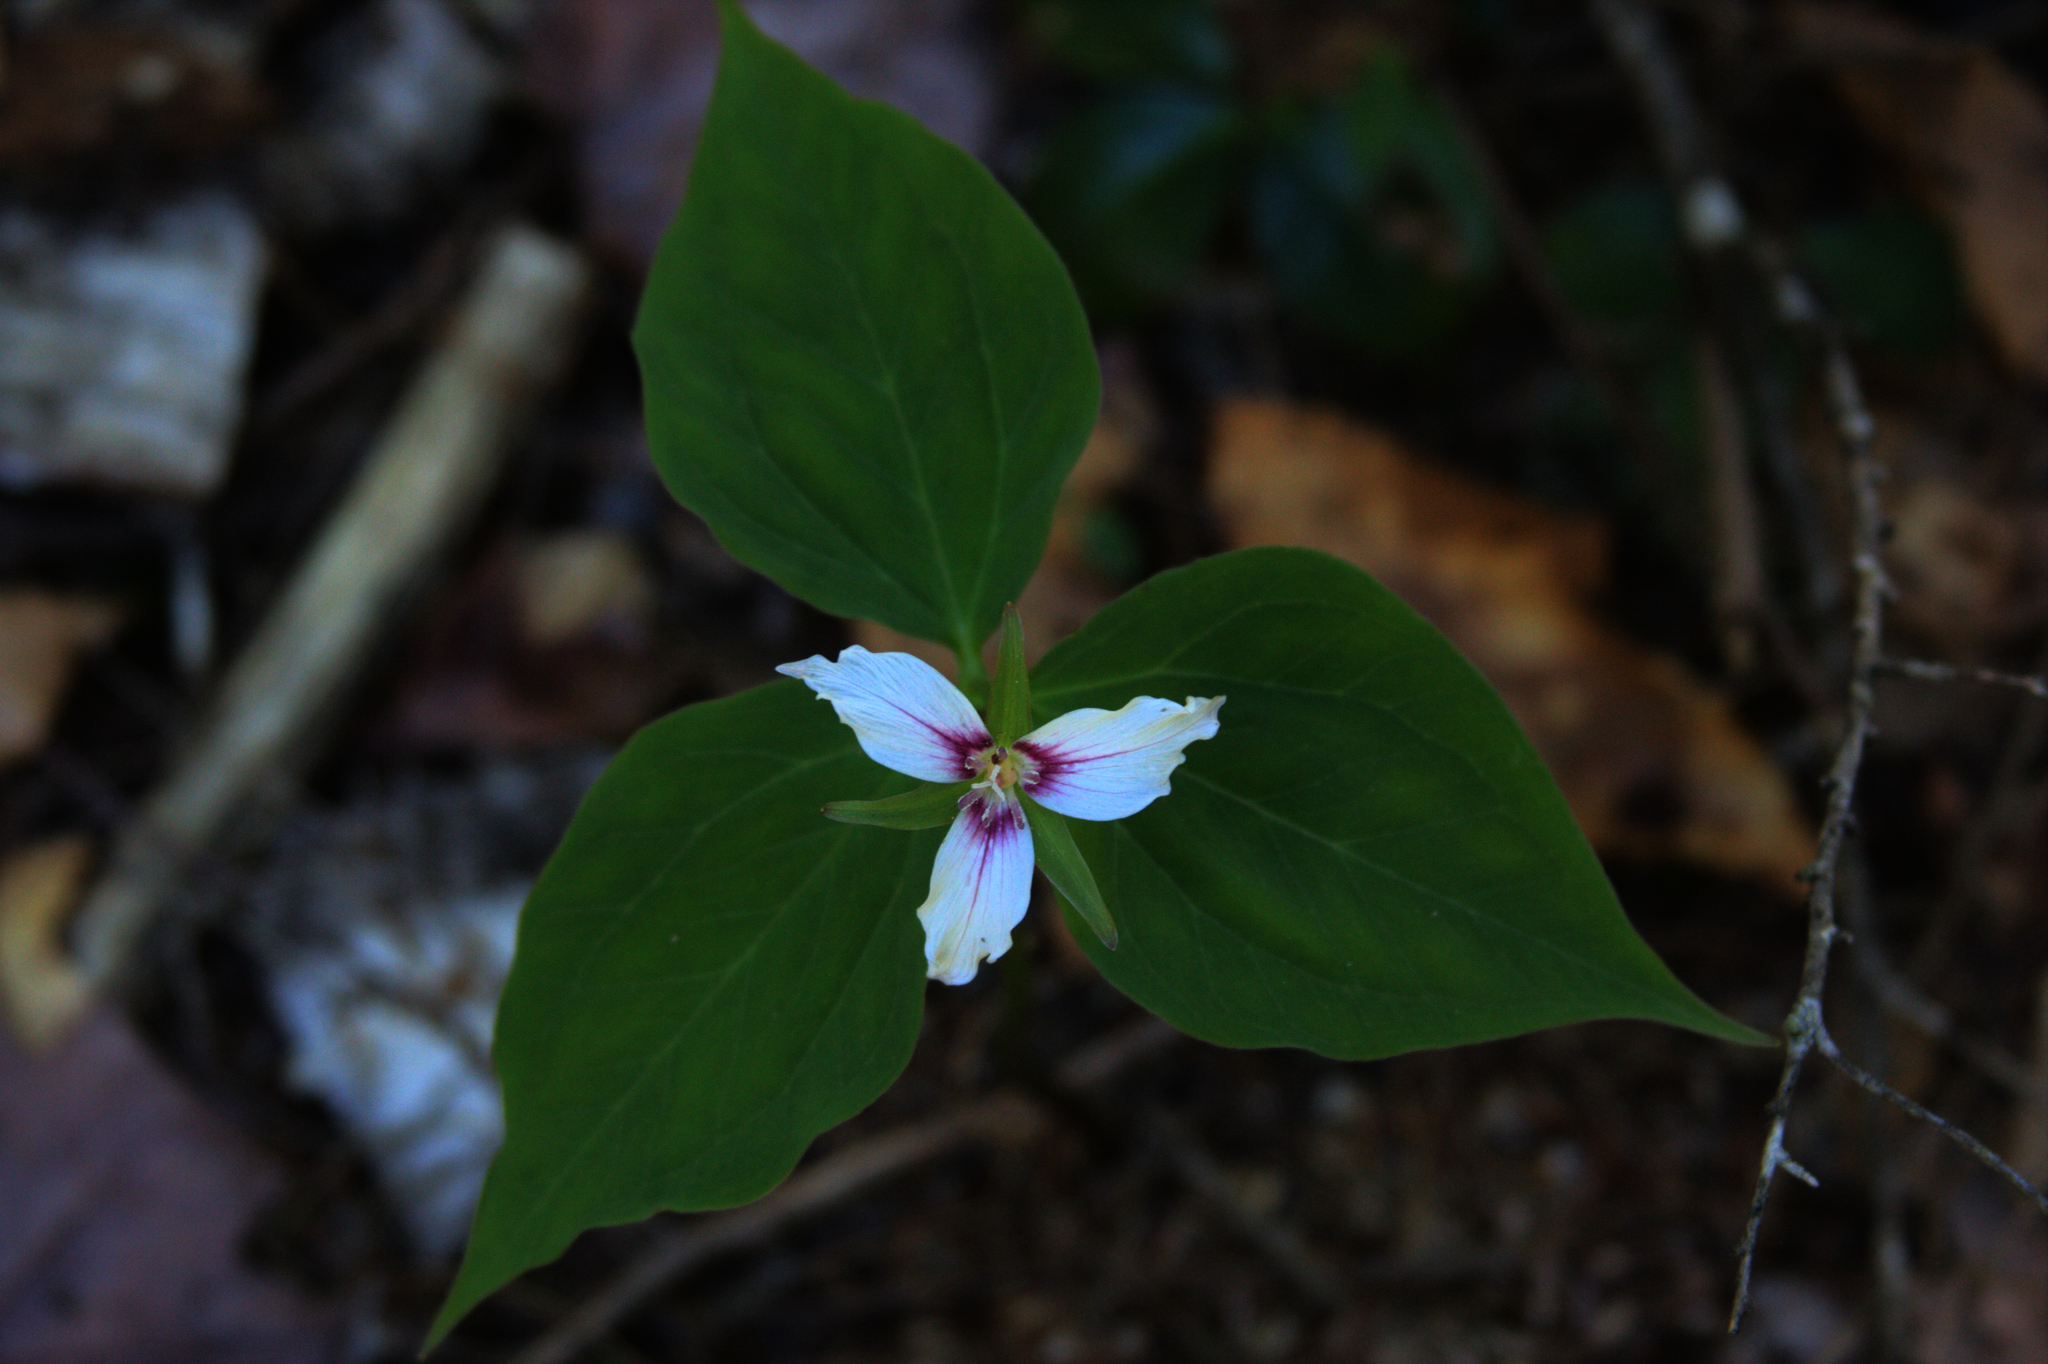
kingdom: Plantae
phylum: Tracheophyta
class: Liliopsida
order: Liliales
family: Melanthiaceae
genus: Trillium
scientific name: Trillium undulatum
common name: Paint trillium
